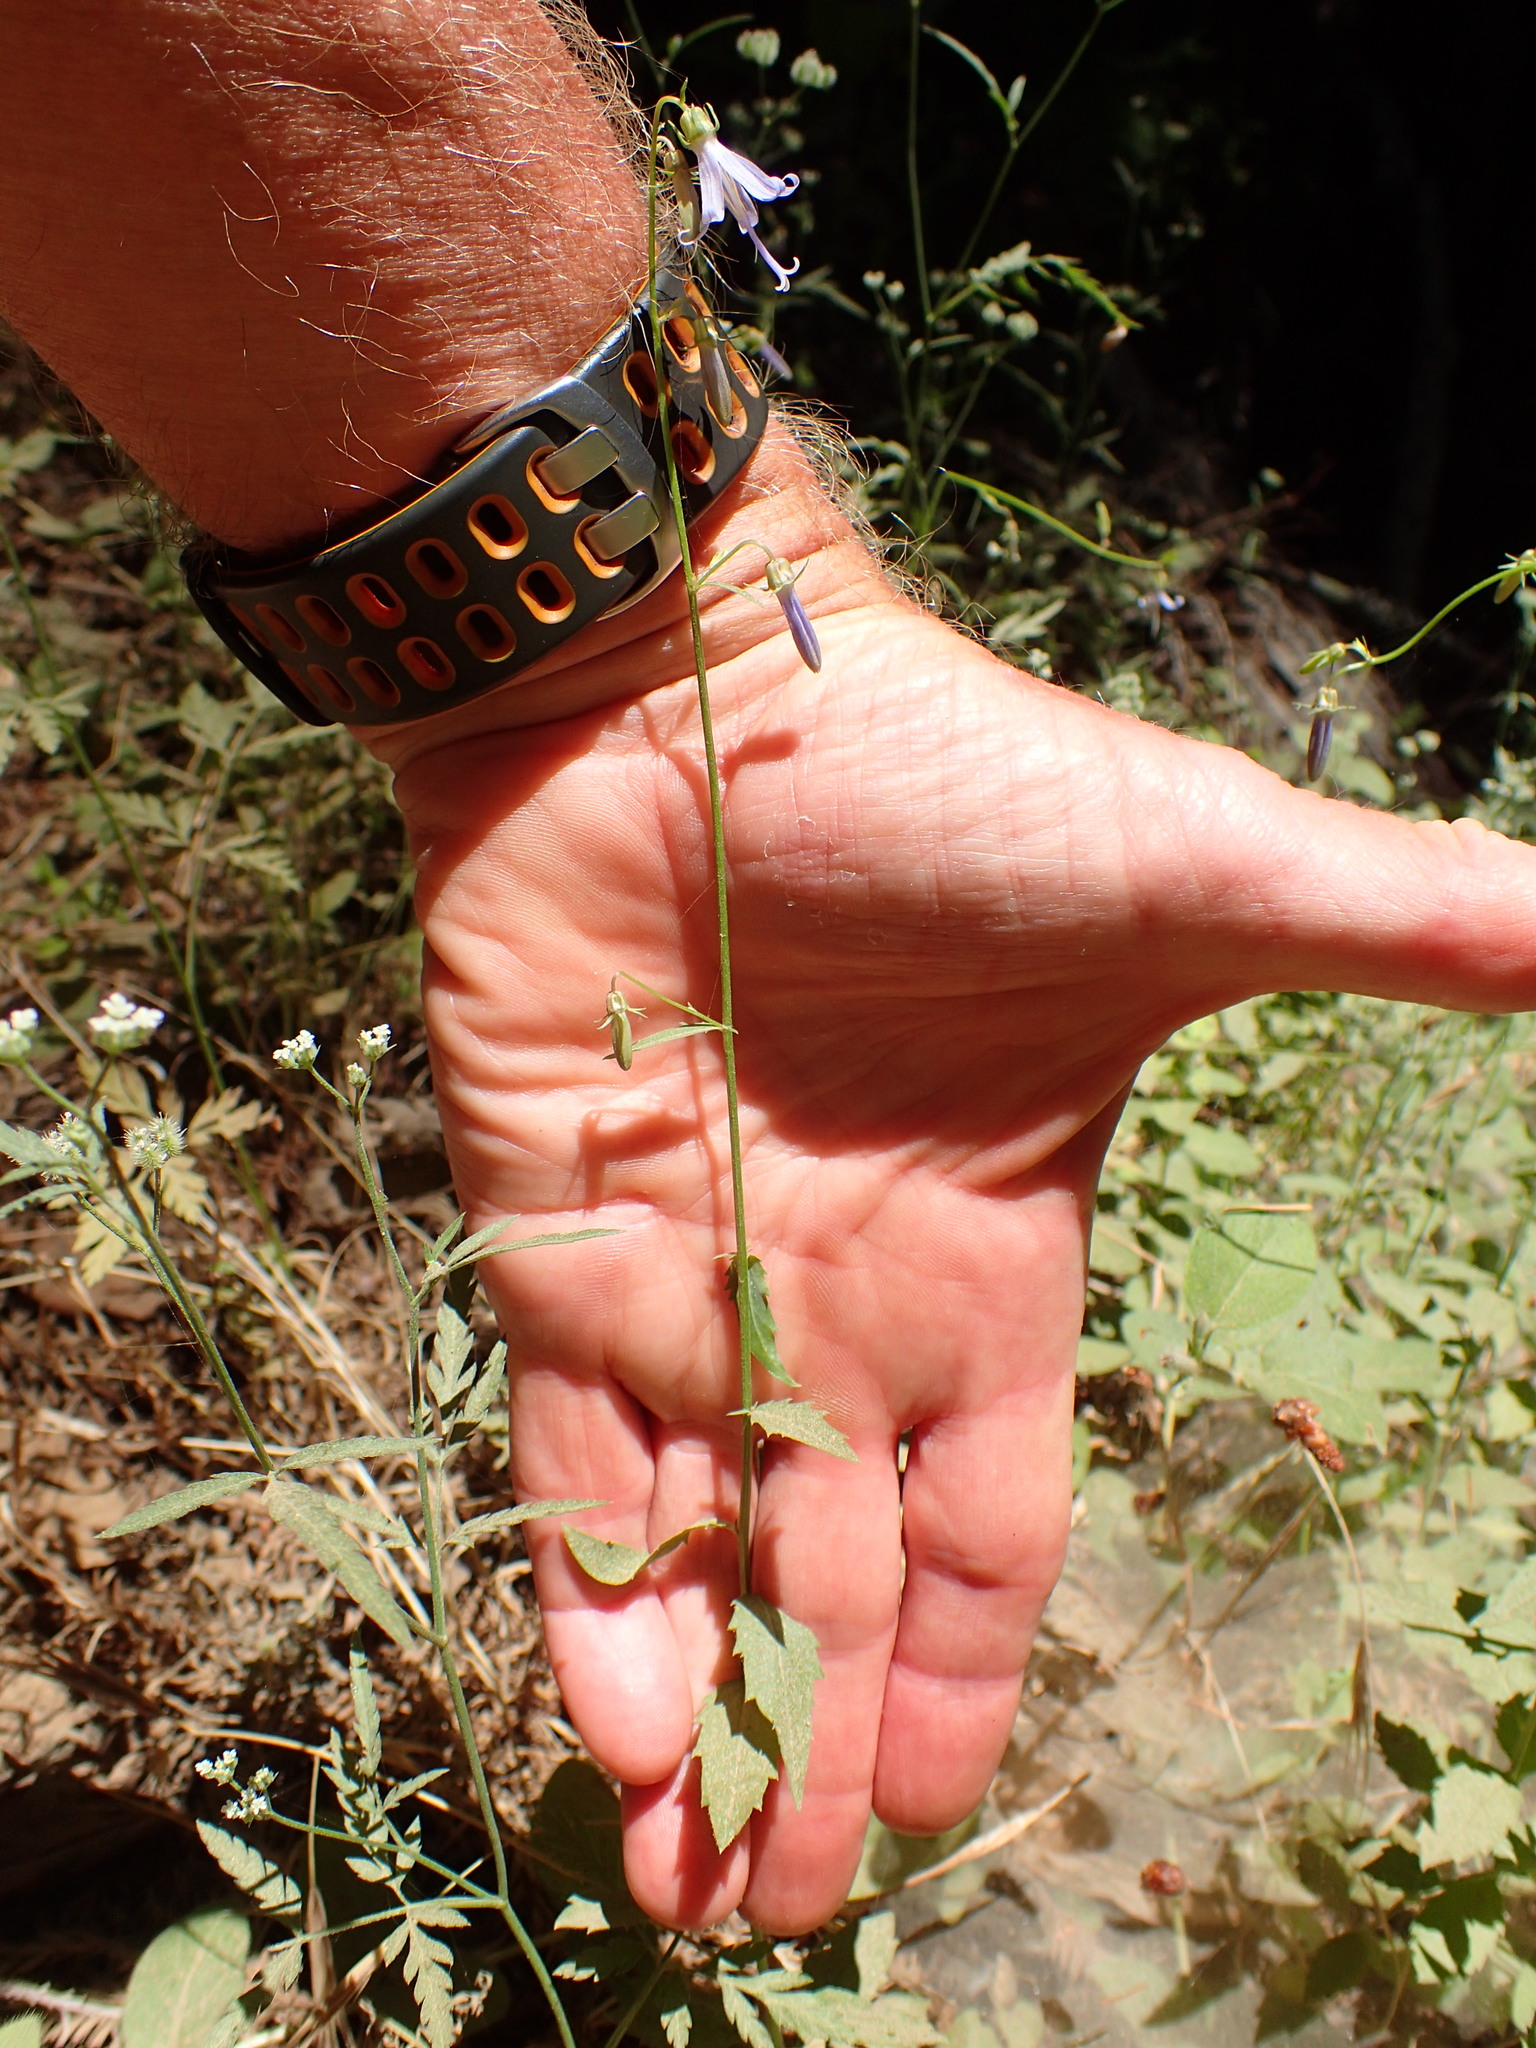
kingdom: Plantae
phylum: Tracheophyta
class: Magnoliopsida
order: Asterales
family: Campanulaceae
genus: Smithiastrum
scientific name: Smithiastrum prenanthoides
